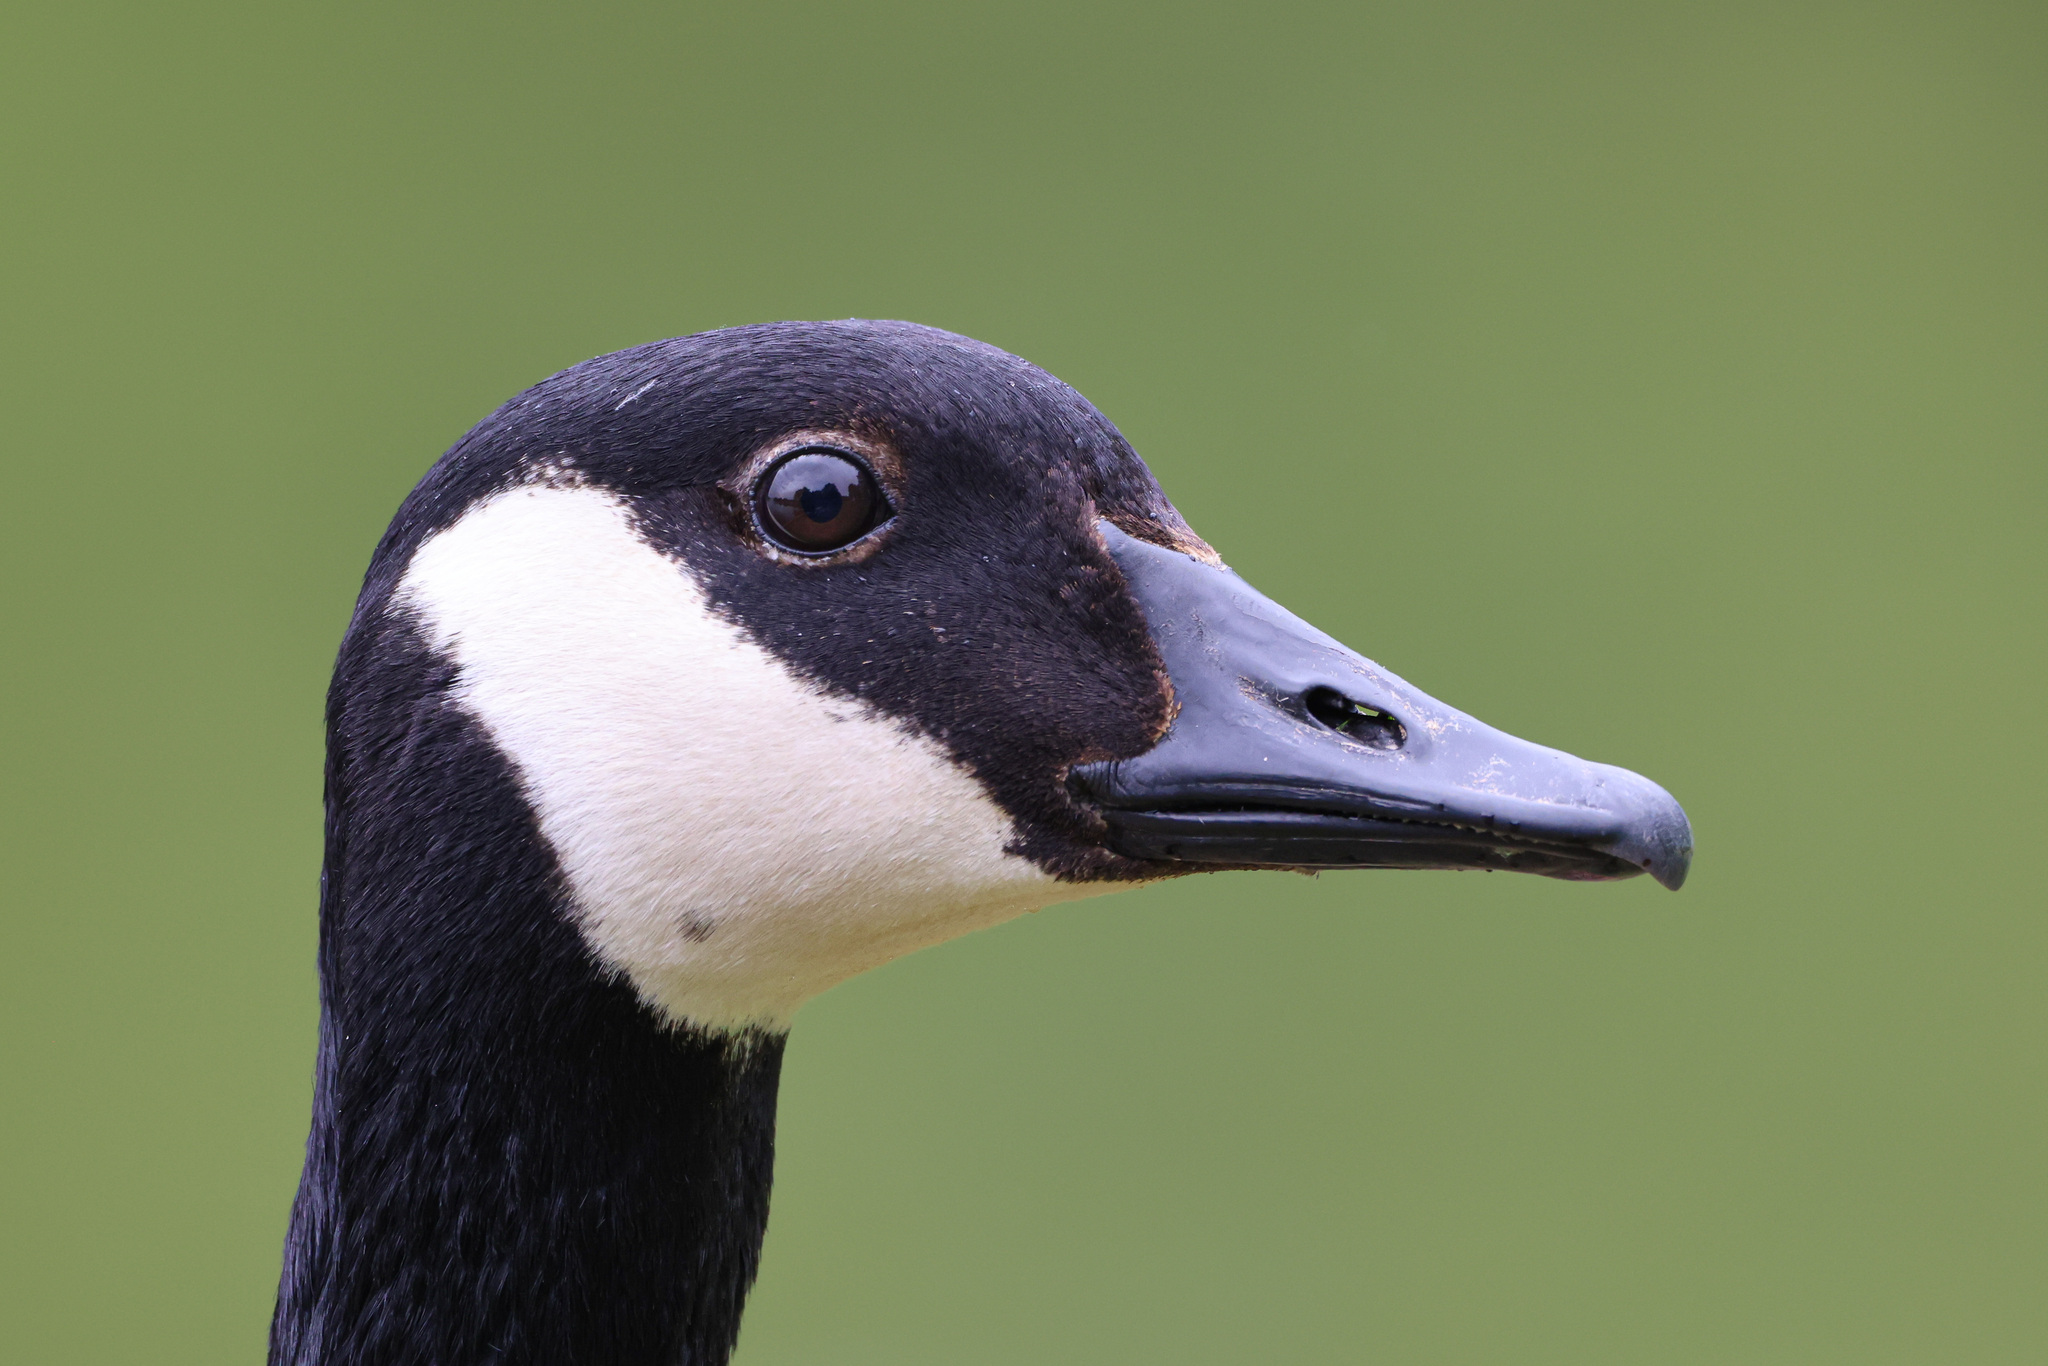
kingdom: Animalia
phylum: Chordata
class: Aves
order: Anseriformes
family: Anatidae
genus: Branta
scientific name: Branta canadensis
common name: Canada goose
